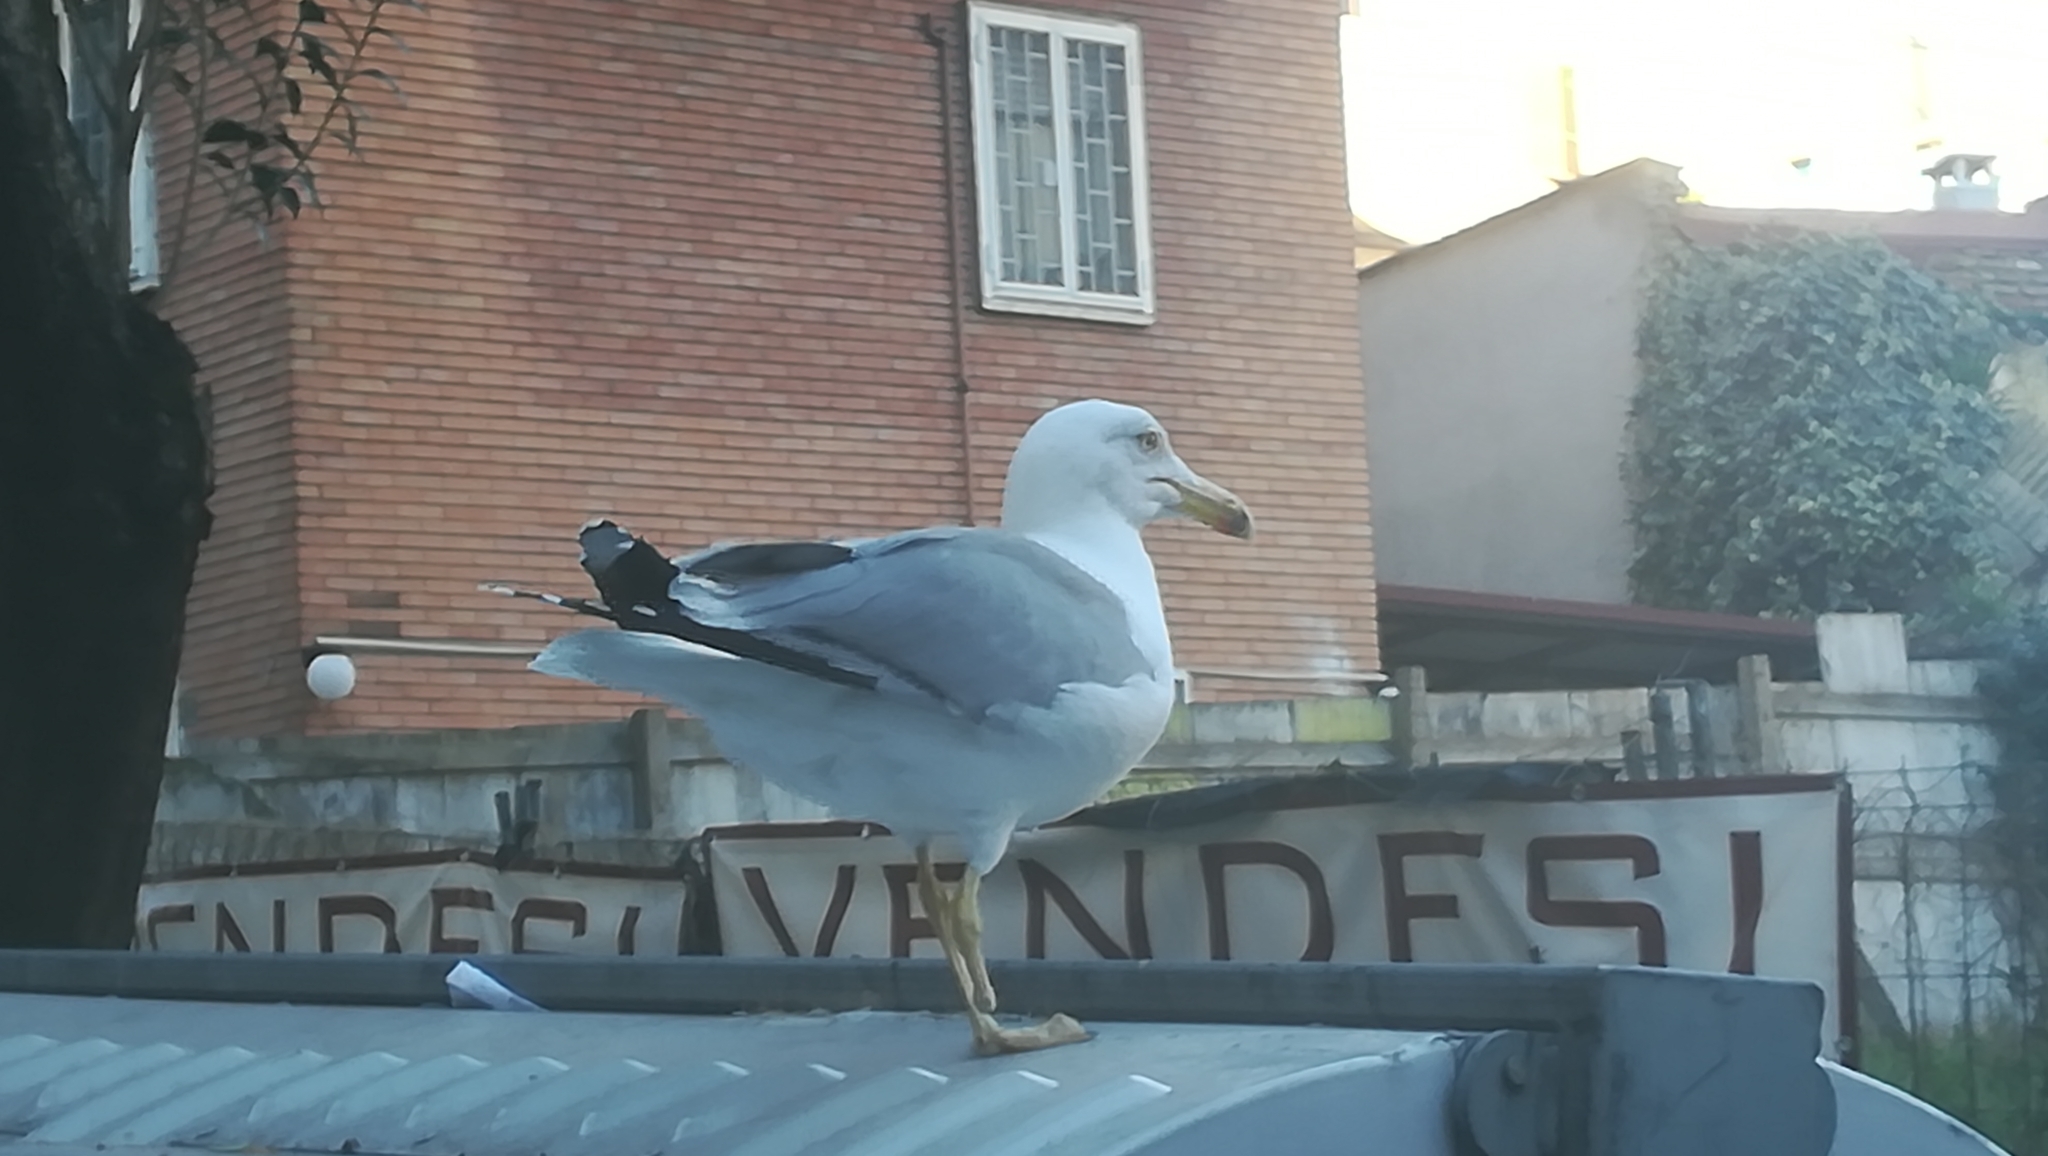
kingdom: Animalia
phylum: Chordata
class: Aves
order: Charadriiformes
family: Laridae
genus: Larus
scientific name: Larus michahellis
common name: Yellow-legged gull
